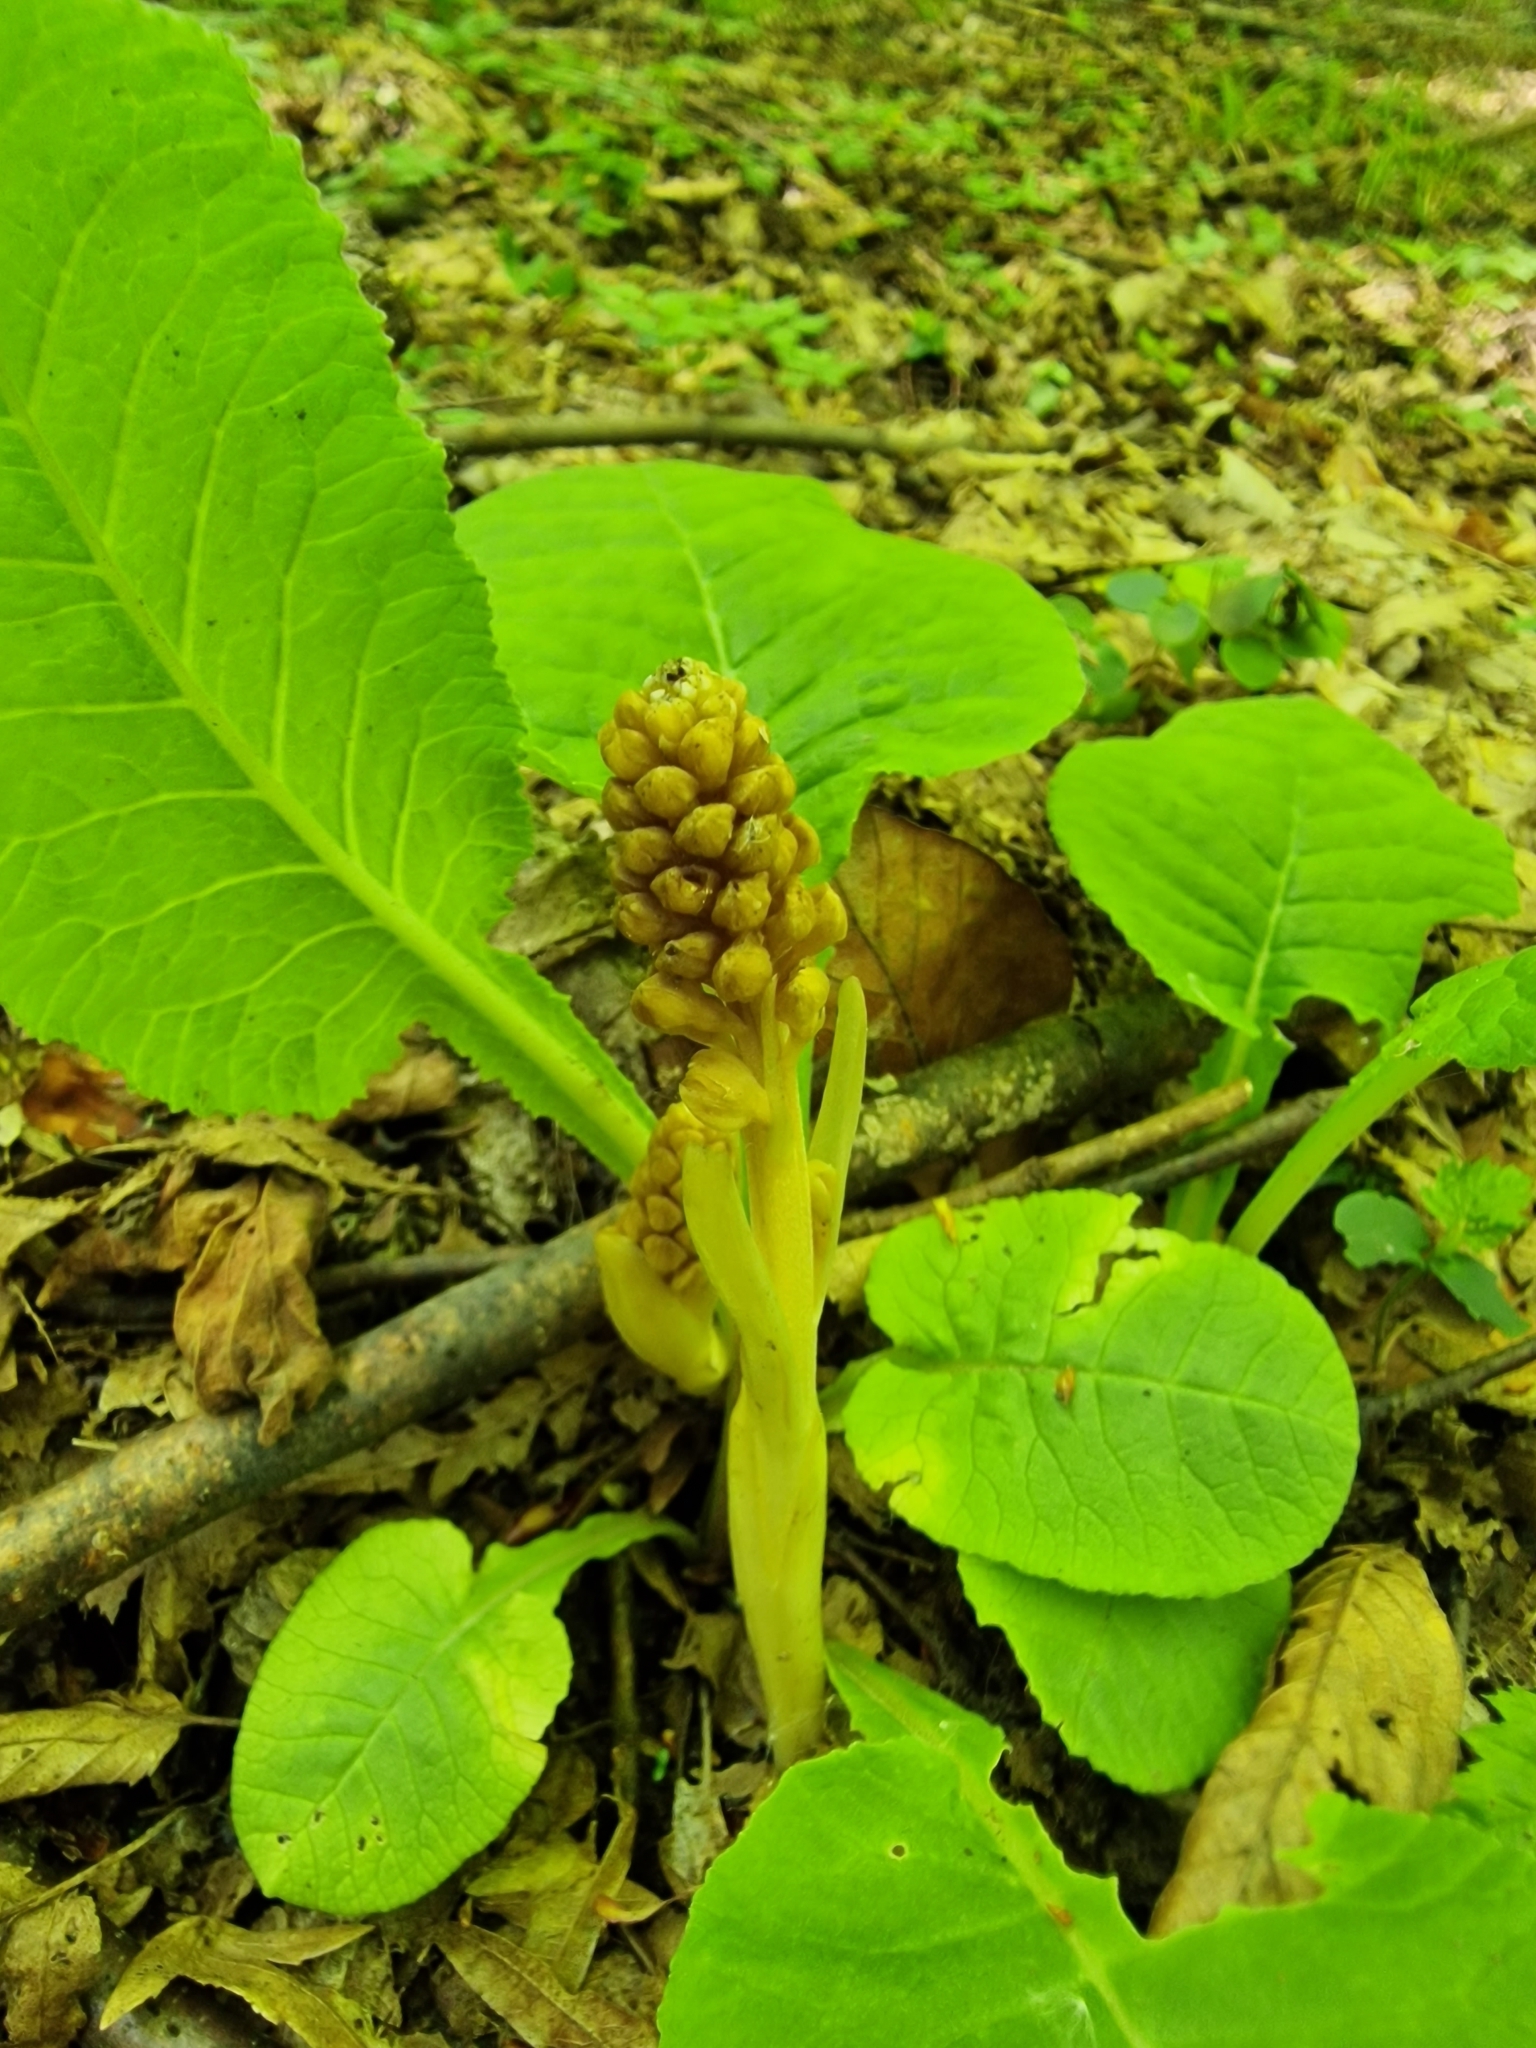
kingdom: Plantae
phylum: Tracheophyta
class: Liliopsida
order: Asparagales
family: Orchidaceae
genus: Neottia
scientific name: Neottia nidus-avis
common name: Bird's-nest orchid
